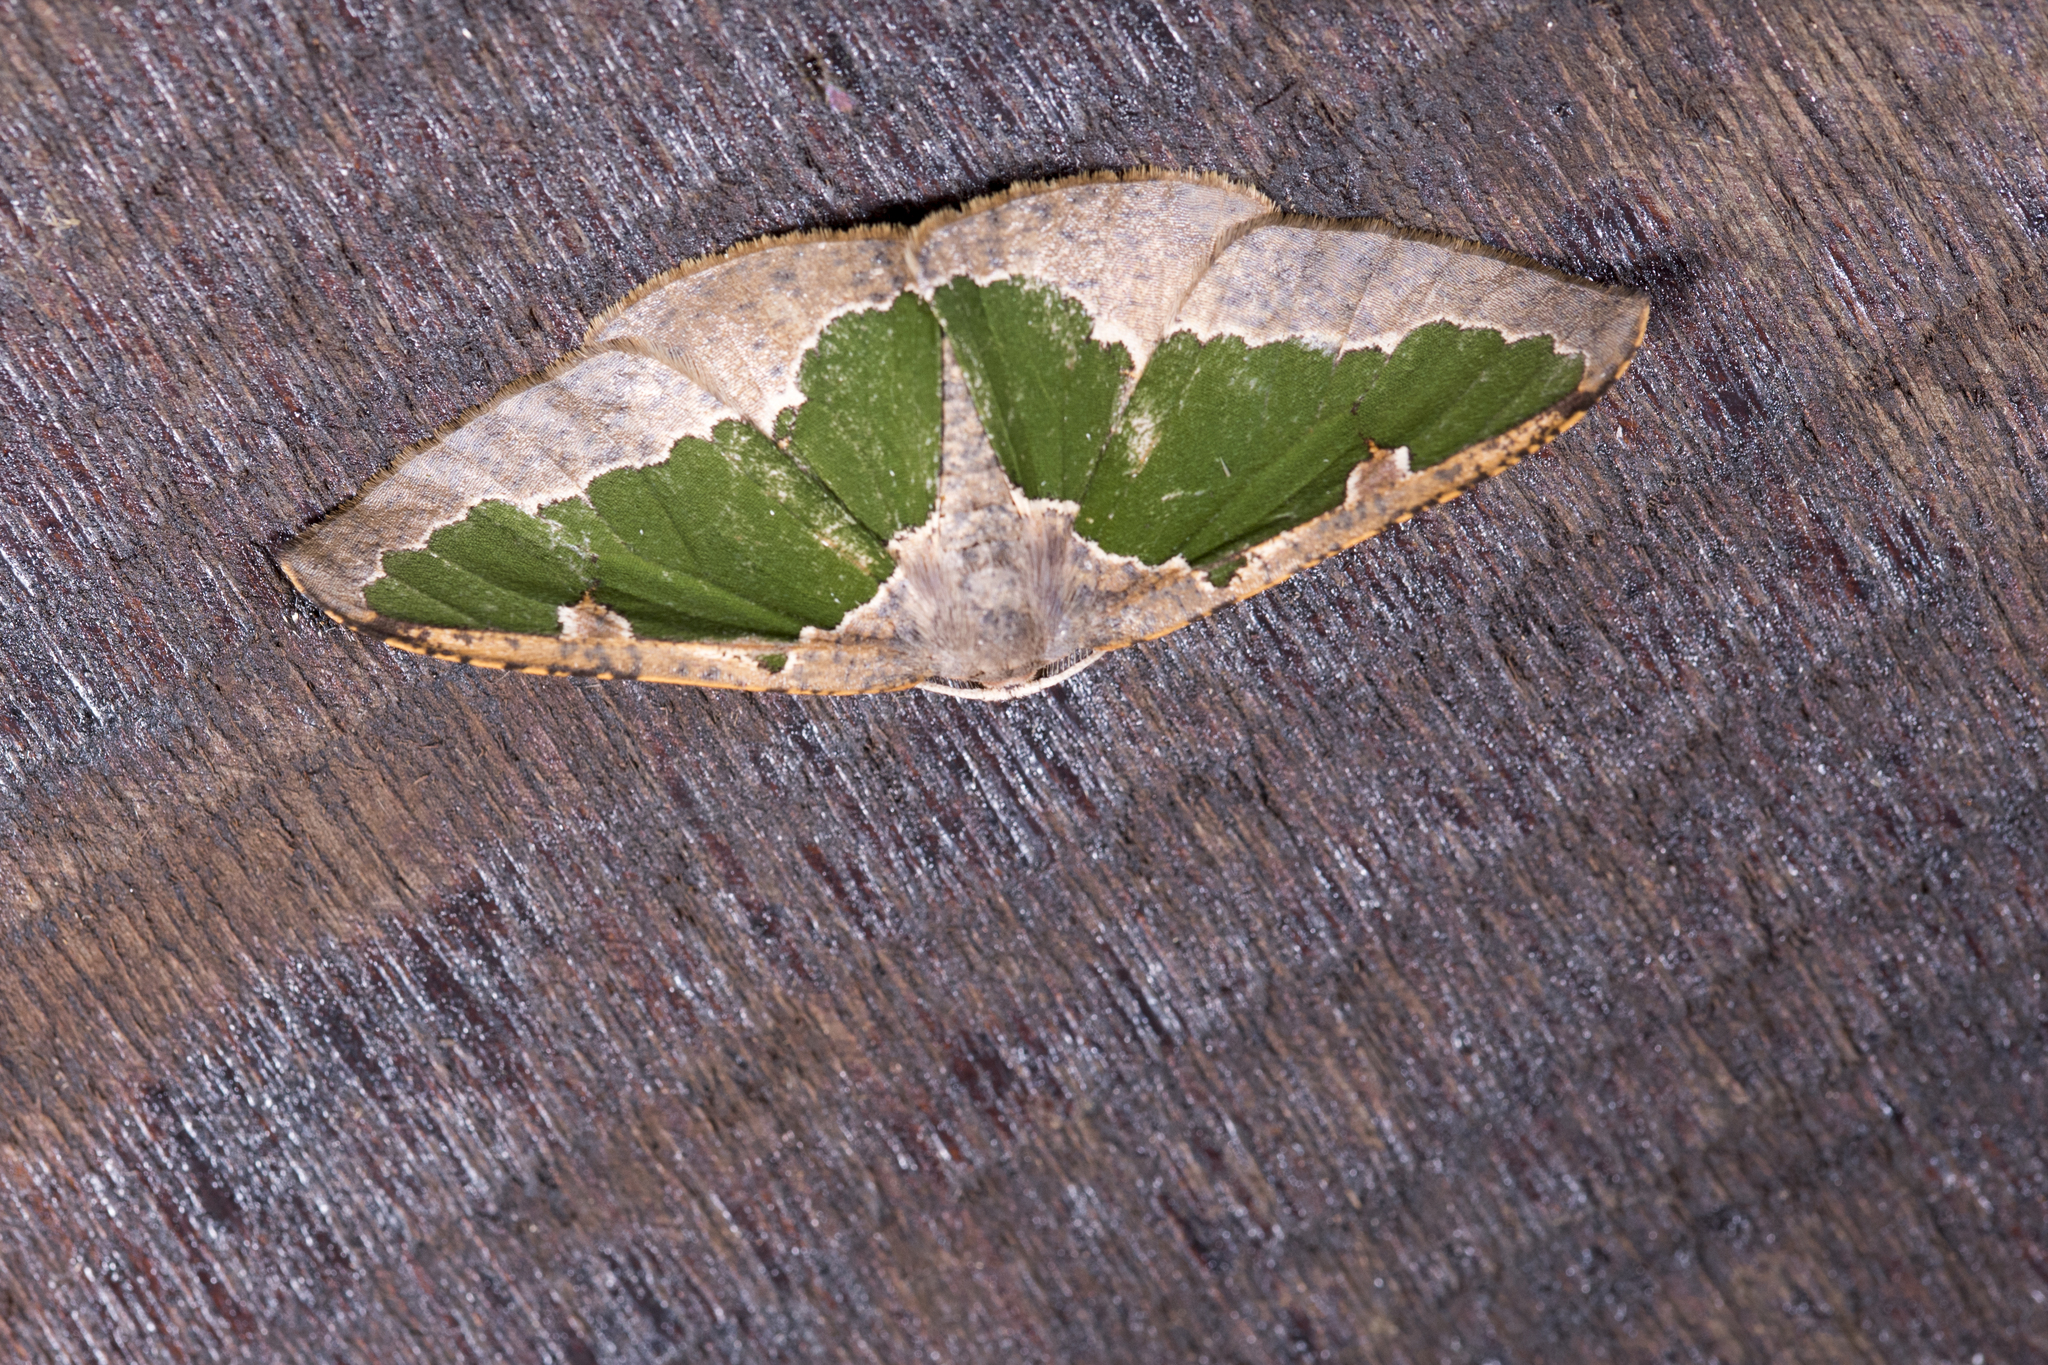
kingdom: Animalia
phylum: Arthropoda
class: Insecta
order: Lepidoptera
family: Geometridae
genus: Celenna
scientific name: Celenna festivaria
